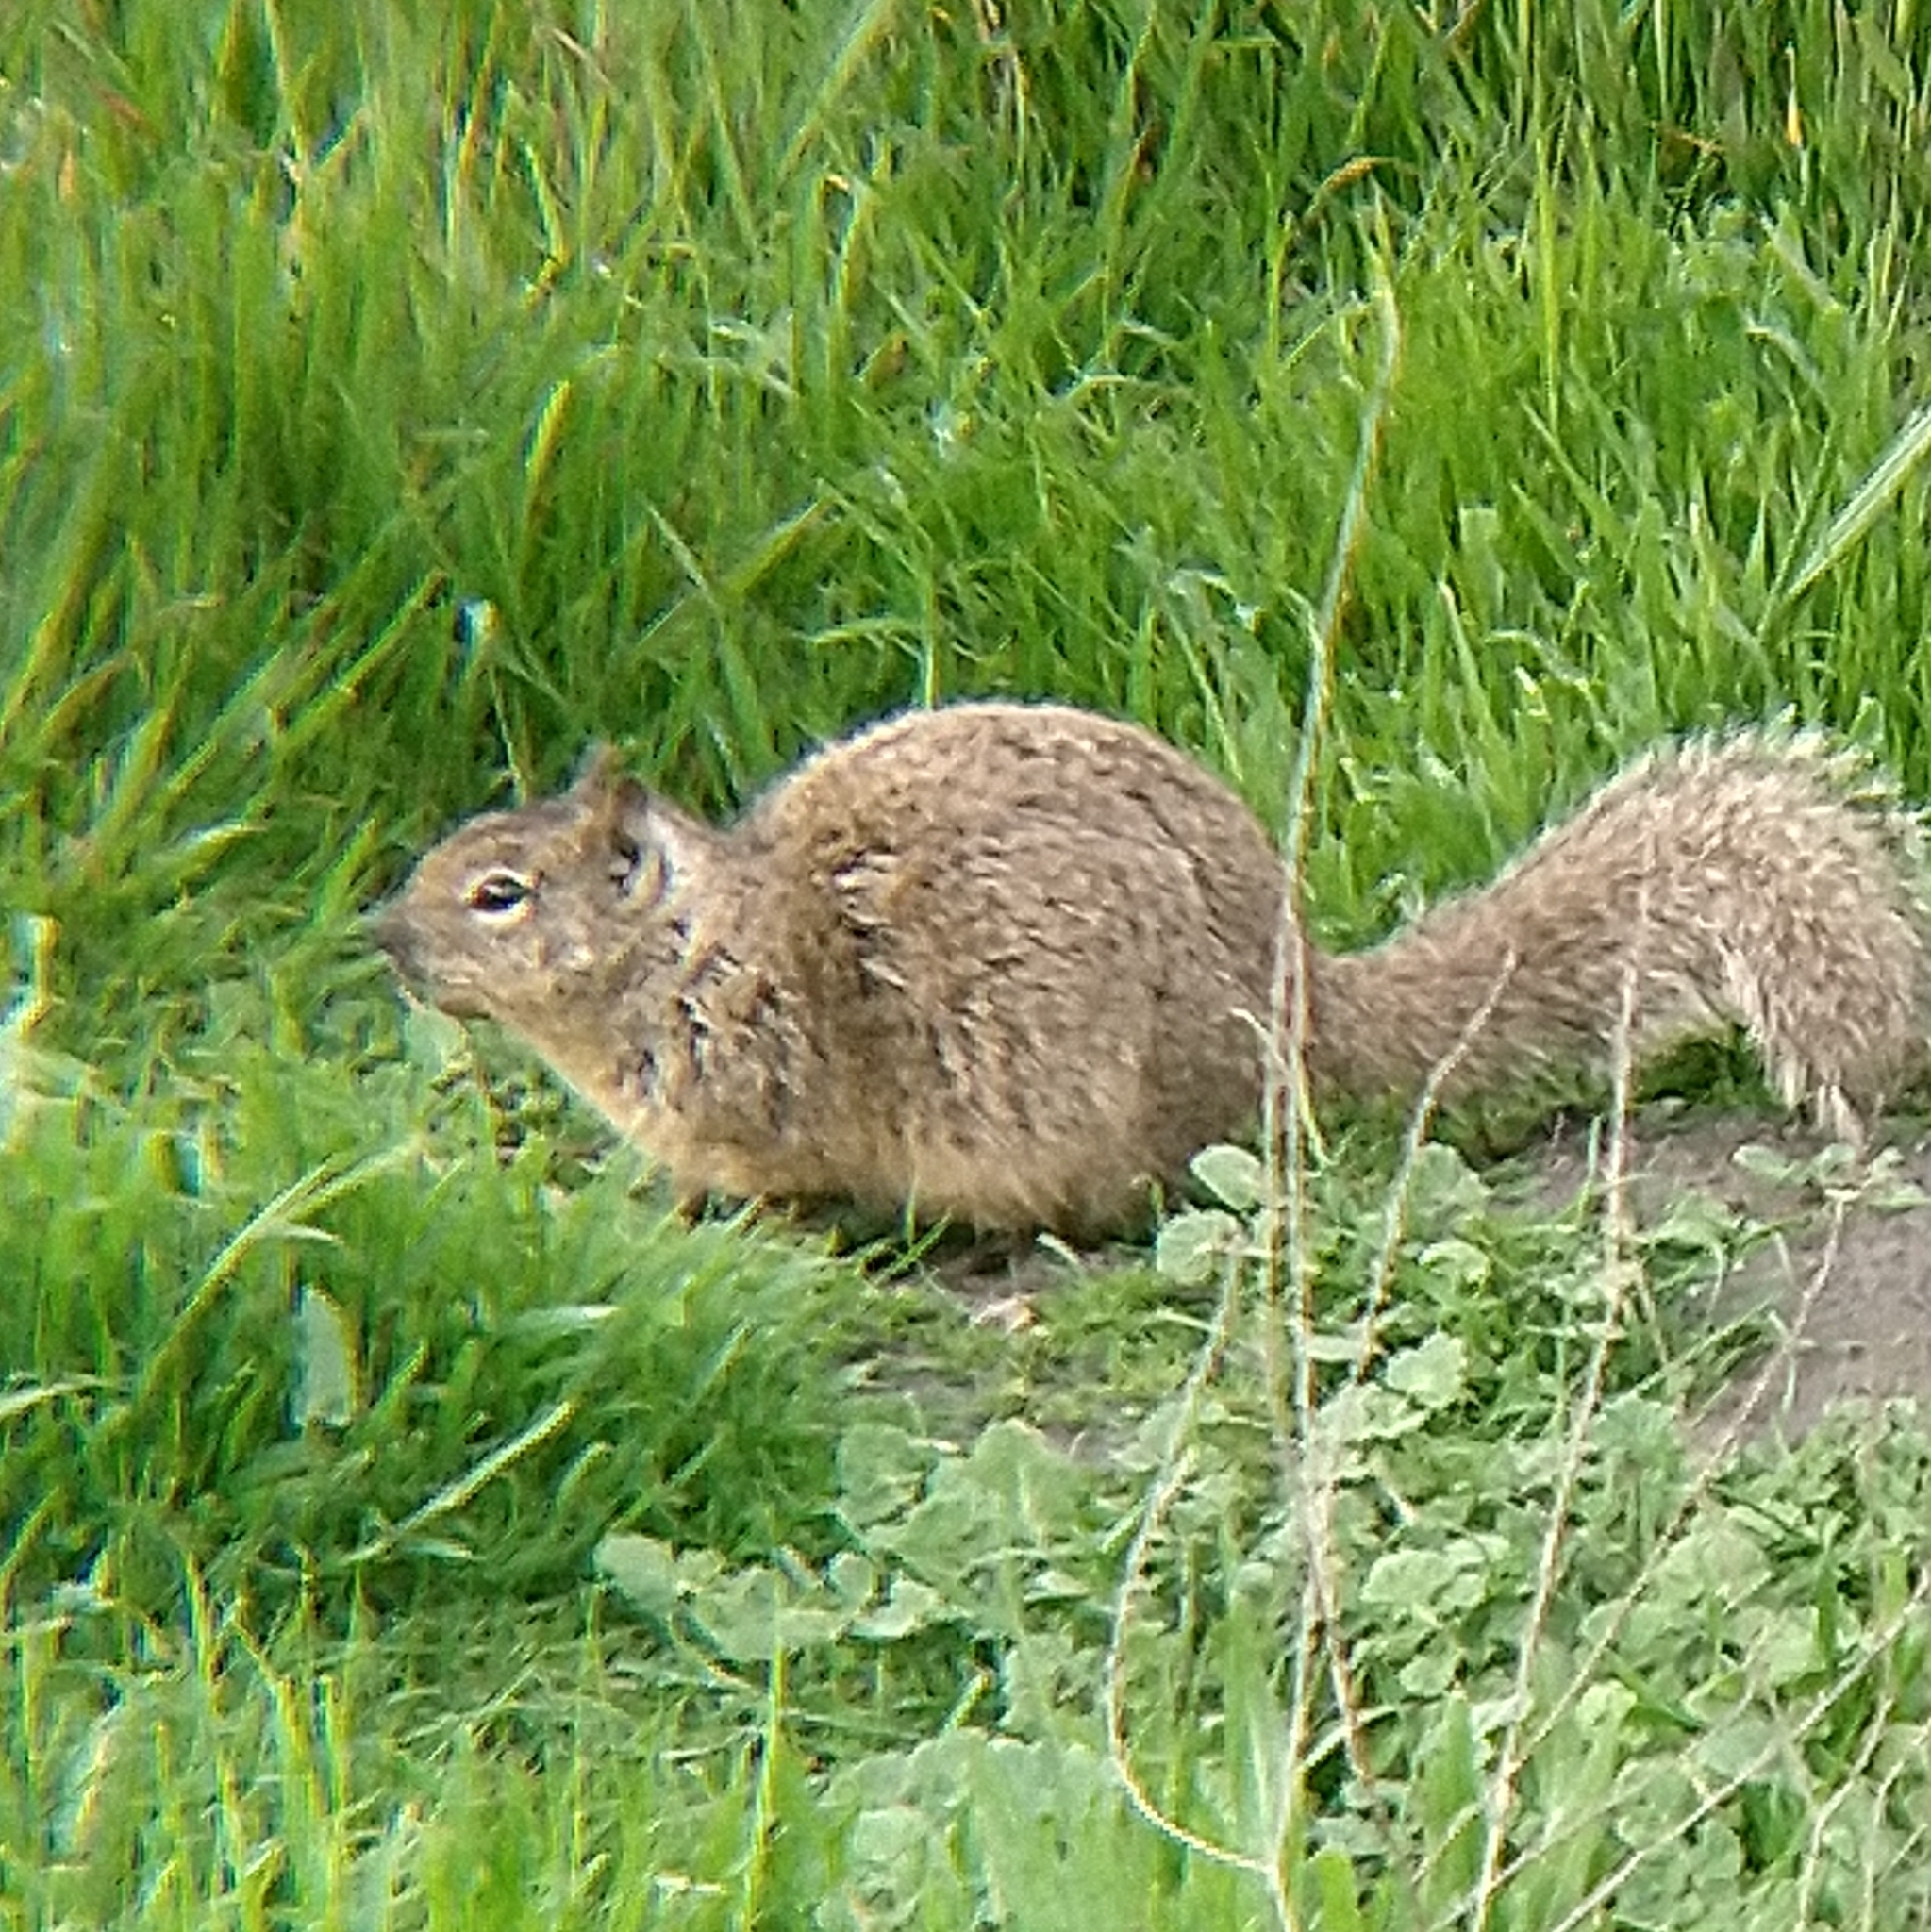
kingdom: Animalia
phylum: Chordata
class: Mammalia
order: Rodentia
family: Sciuridae
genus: Otospermophilus
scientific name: Otospermophilus beecheyi
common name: California ground squirrel
